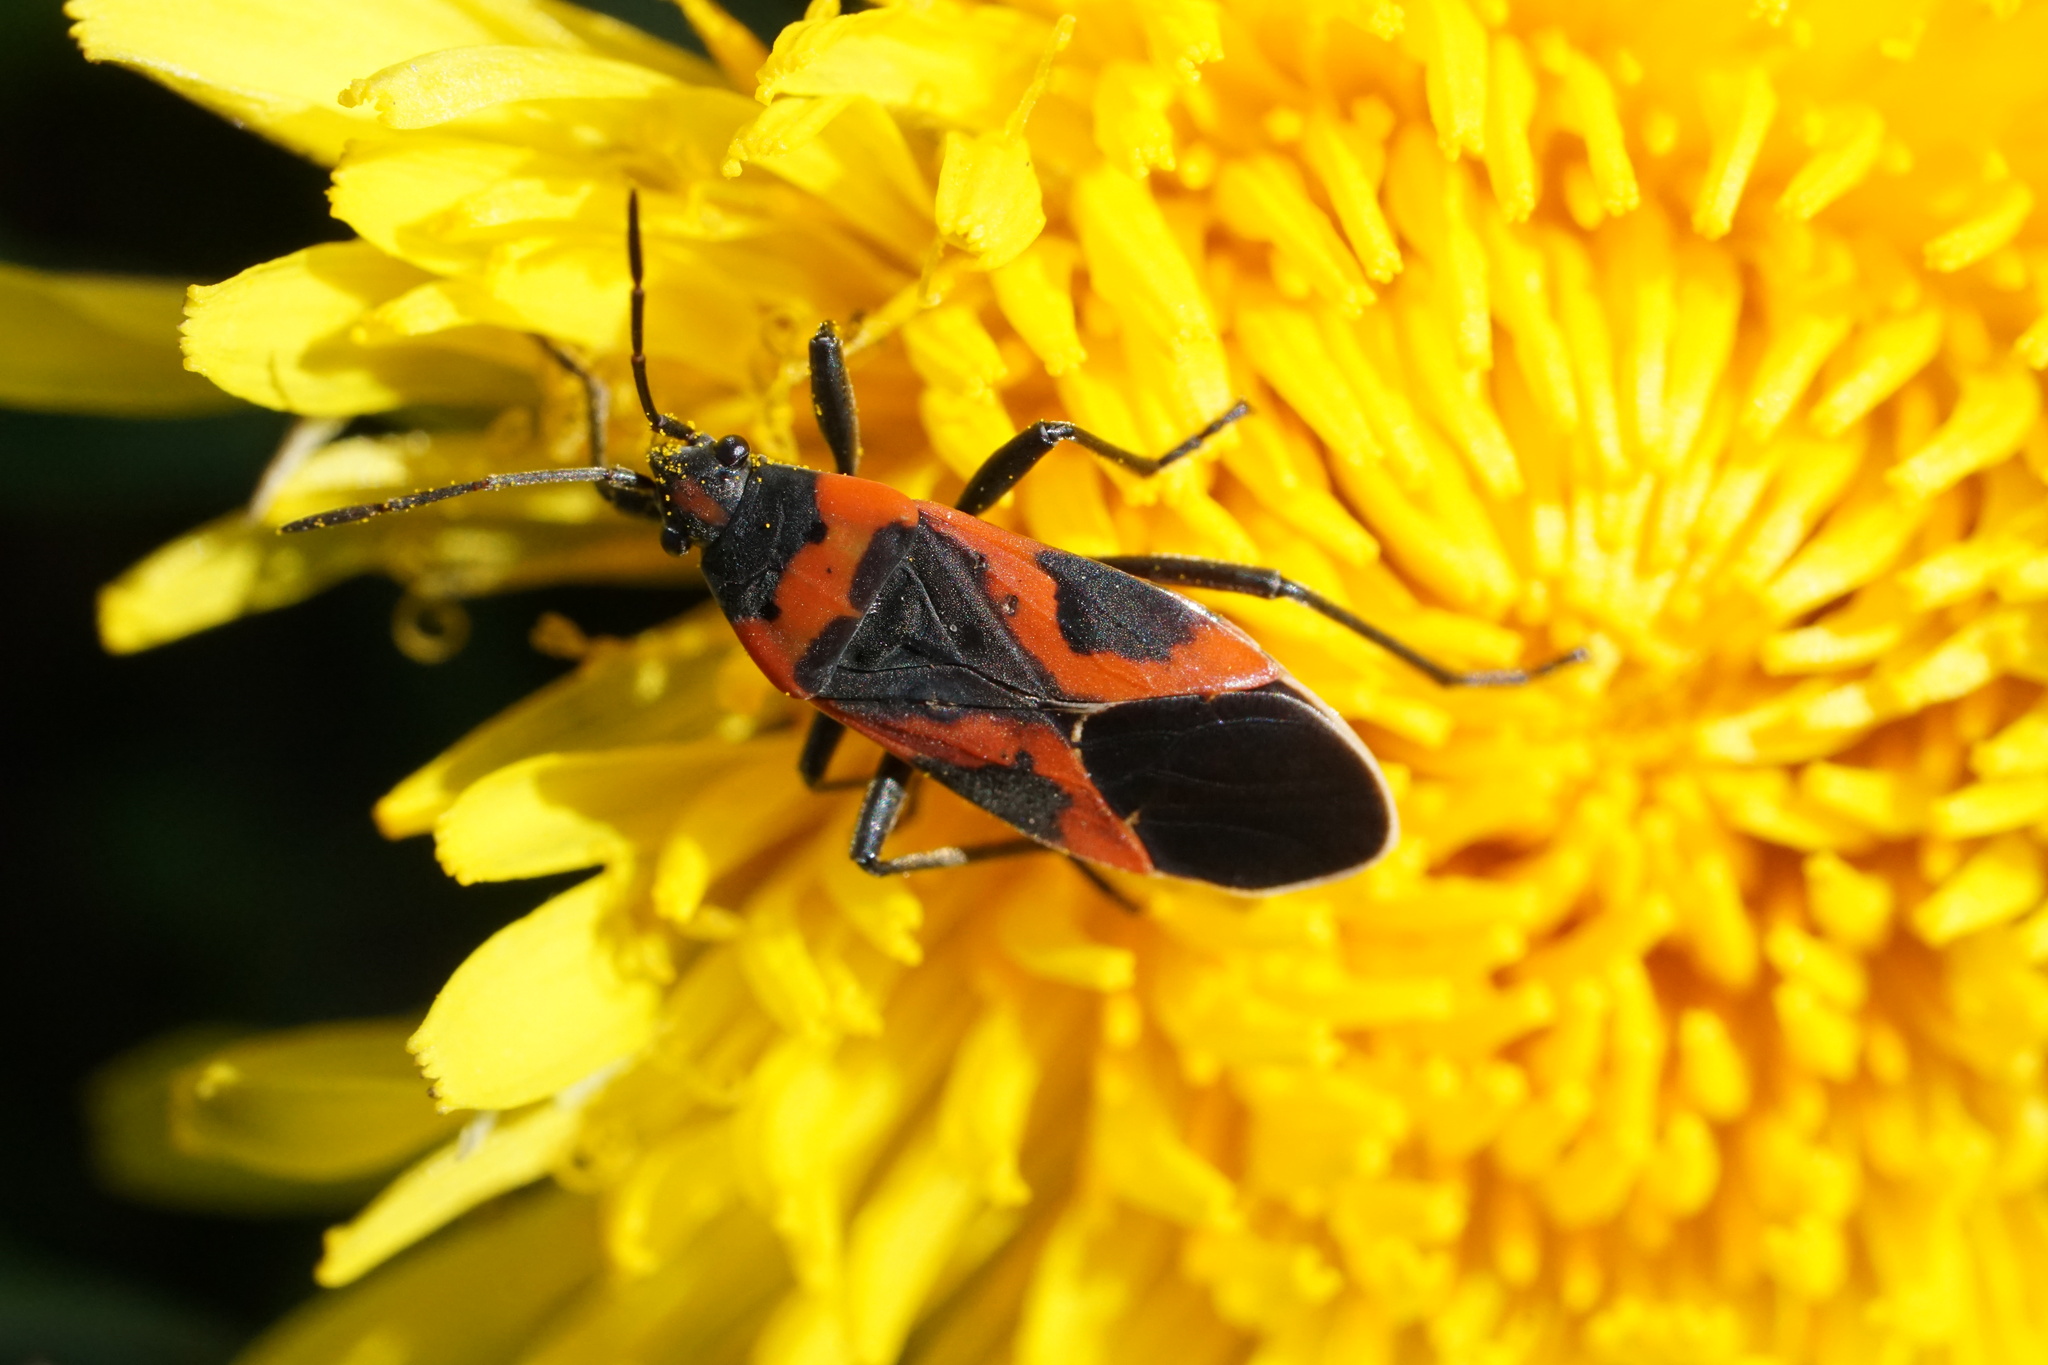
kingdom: Animalia
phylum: Arthropoda
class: Insecta
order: Hemiptera
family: Lygaeidae
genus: Lygaeus
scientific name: Lygaeus kalmii
